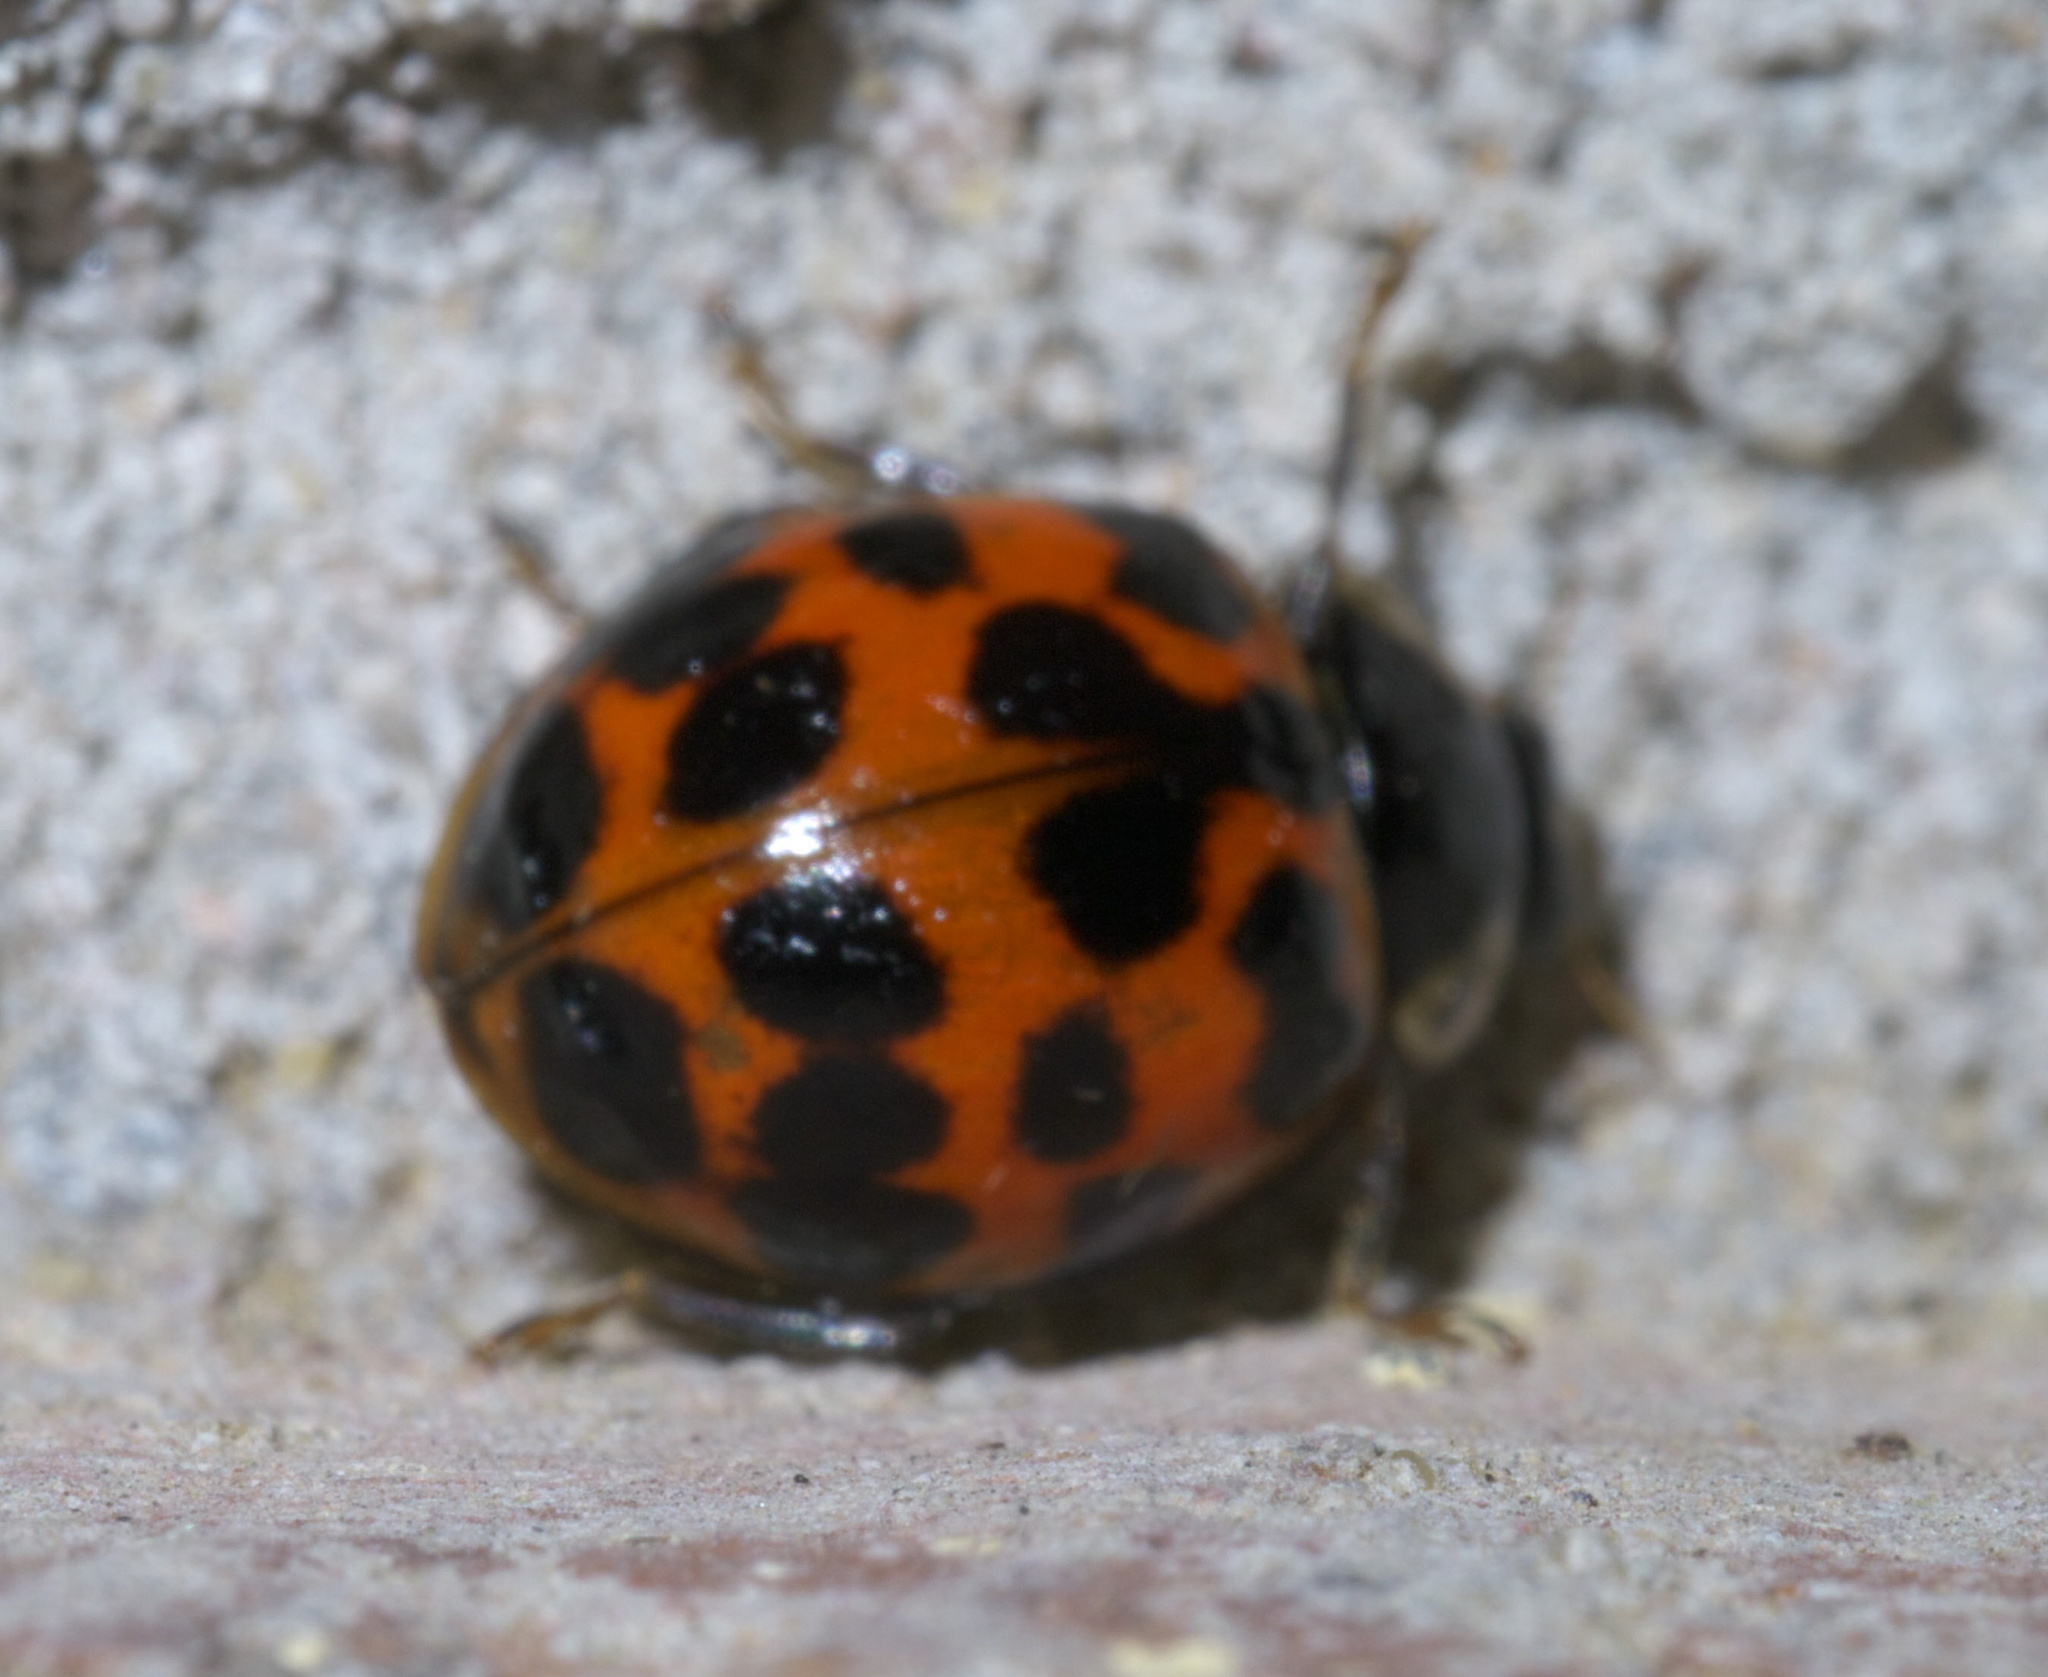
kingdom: Animalia
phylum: Arthropoda
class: Insecta
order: Coleoptera
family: Coccinellidae
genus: Harmonia
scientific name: Harmonia axyridis
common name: Harlequin ladybird
